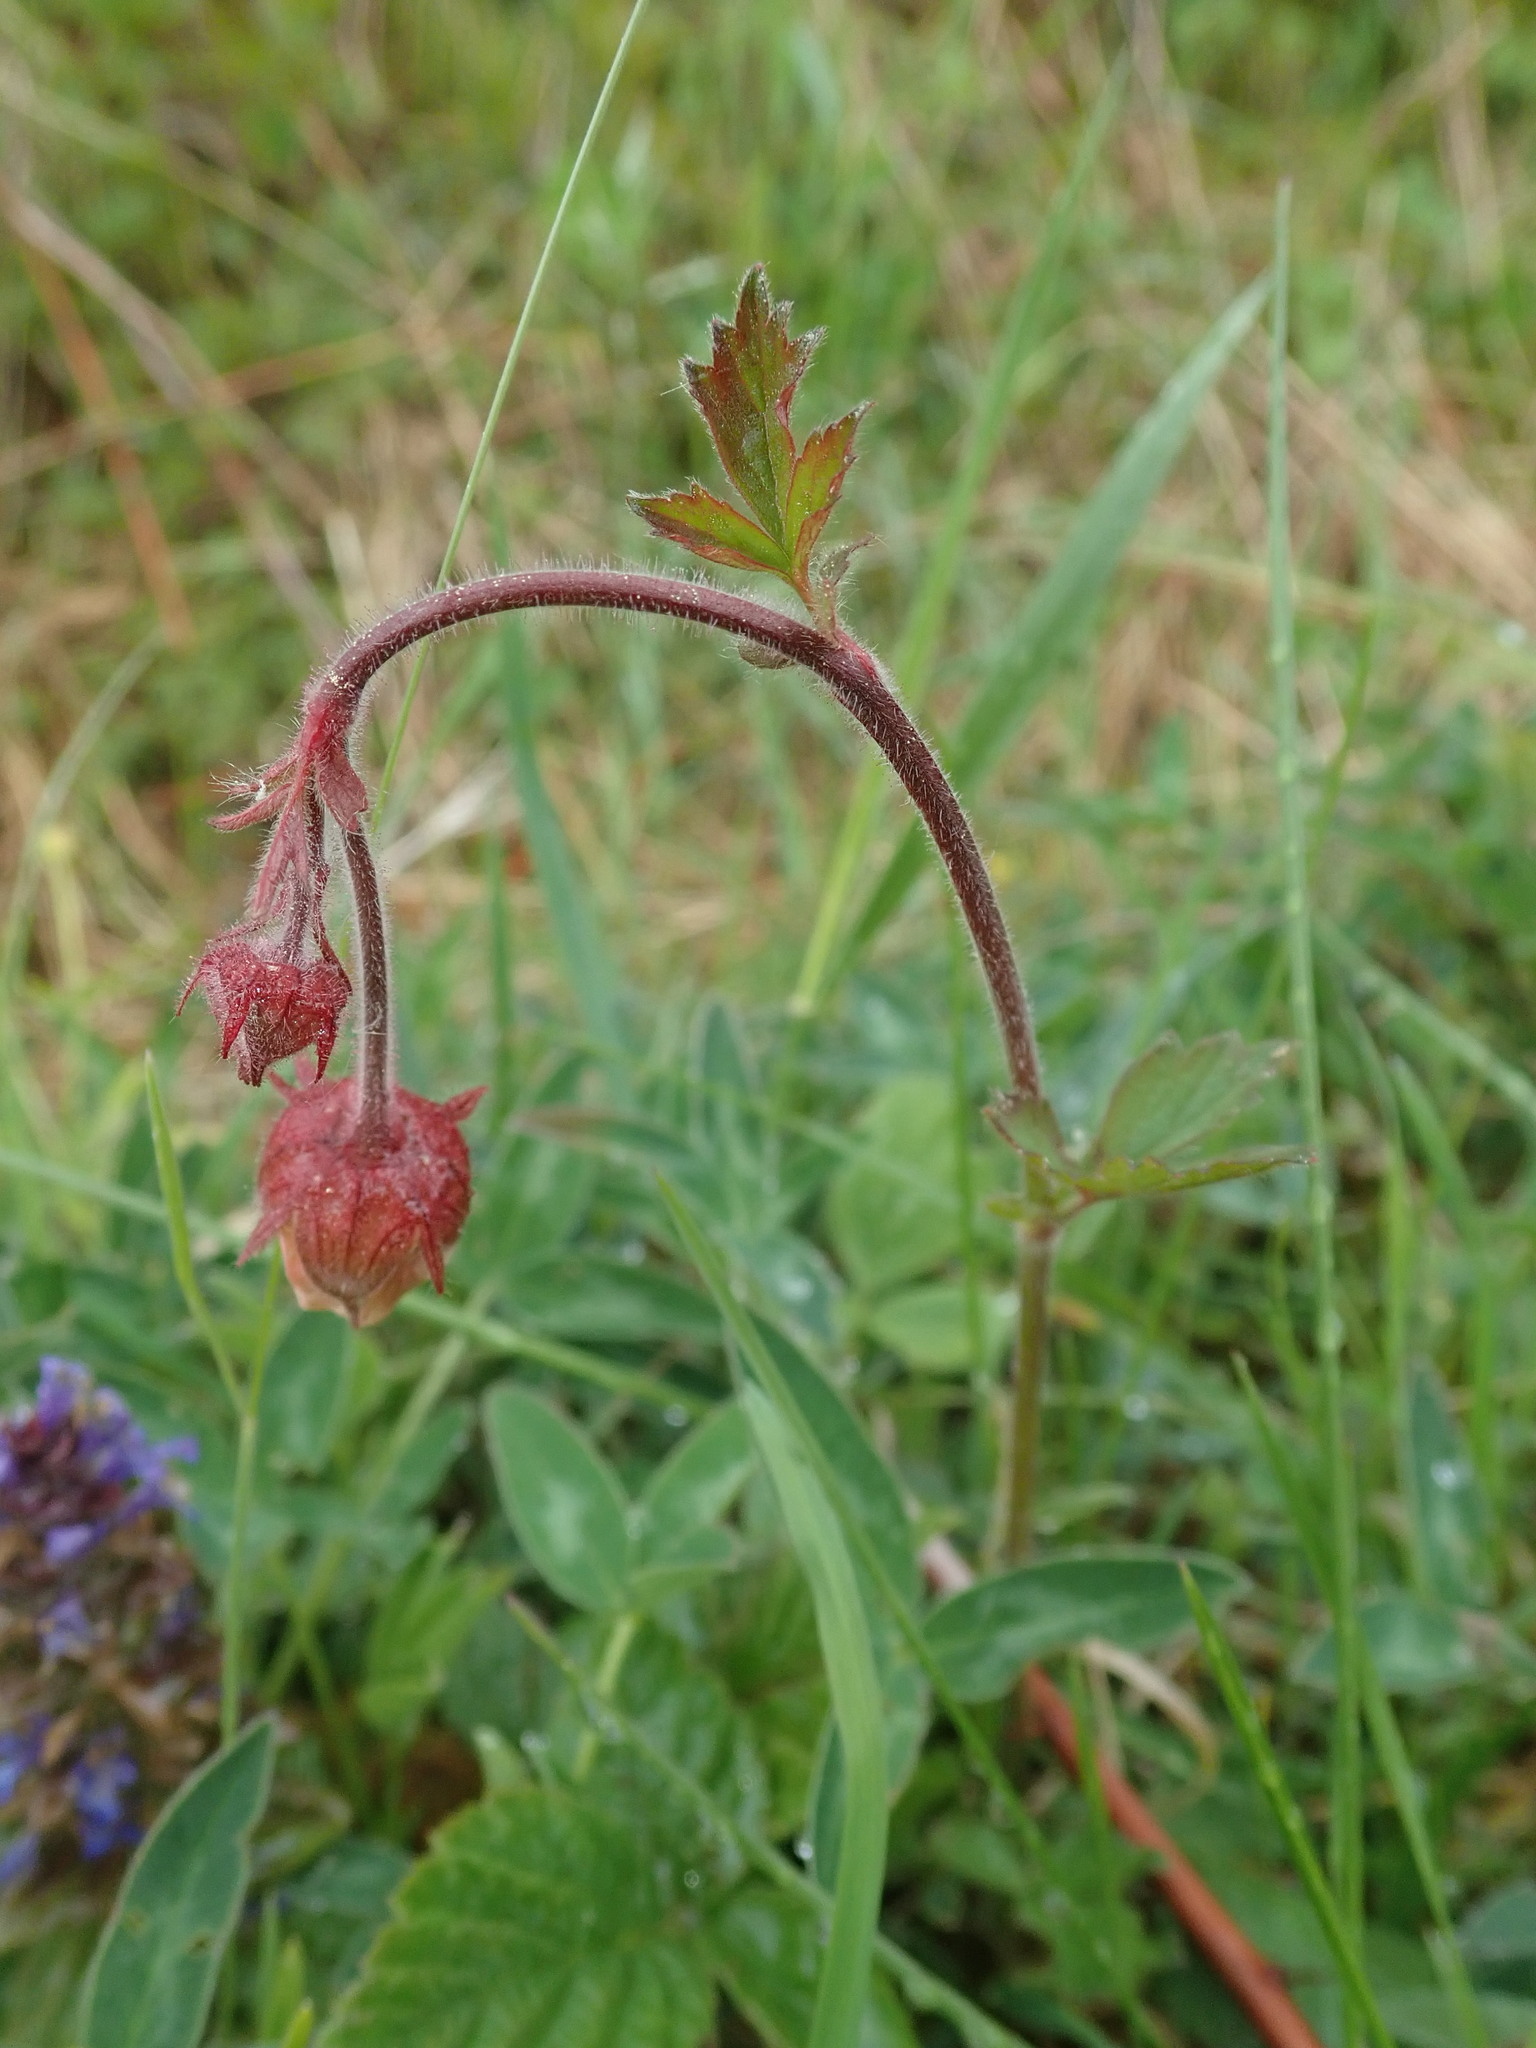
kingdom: Plantae
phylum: Tracheophyta
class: Magnoliopsida
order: Rosales
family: Rosaceae
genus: Geum
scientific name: Geum rivale
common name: Water avens
